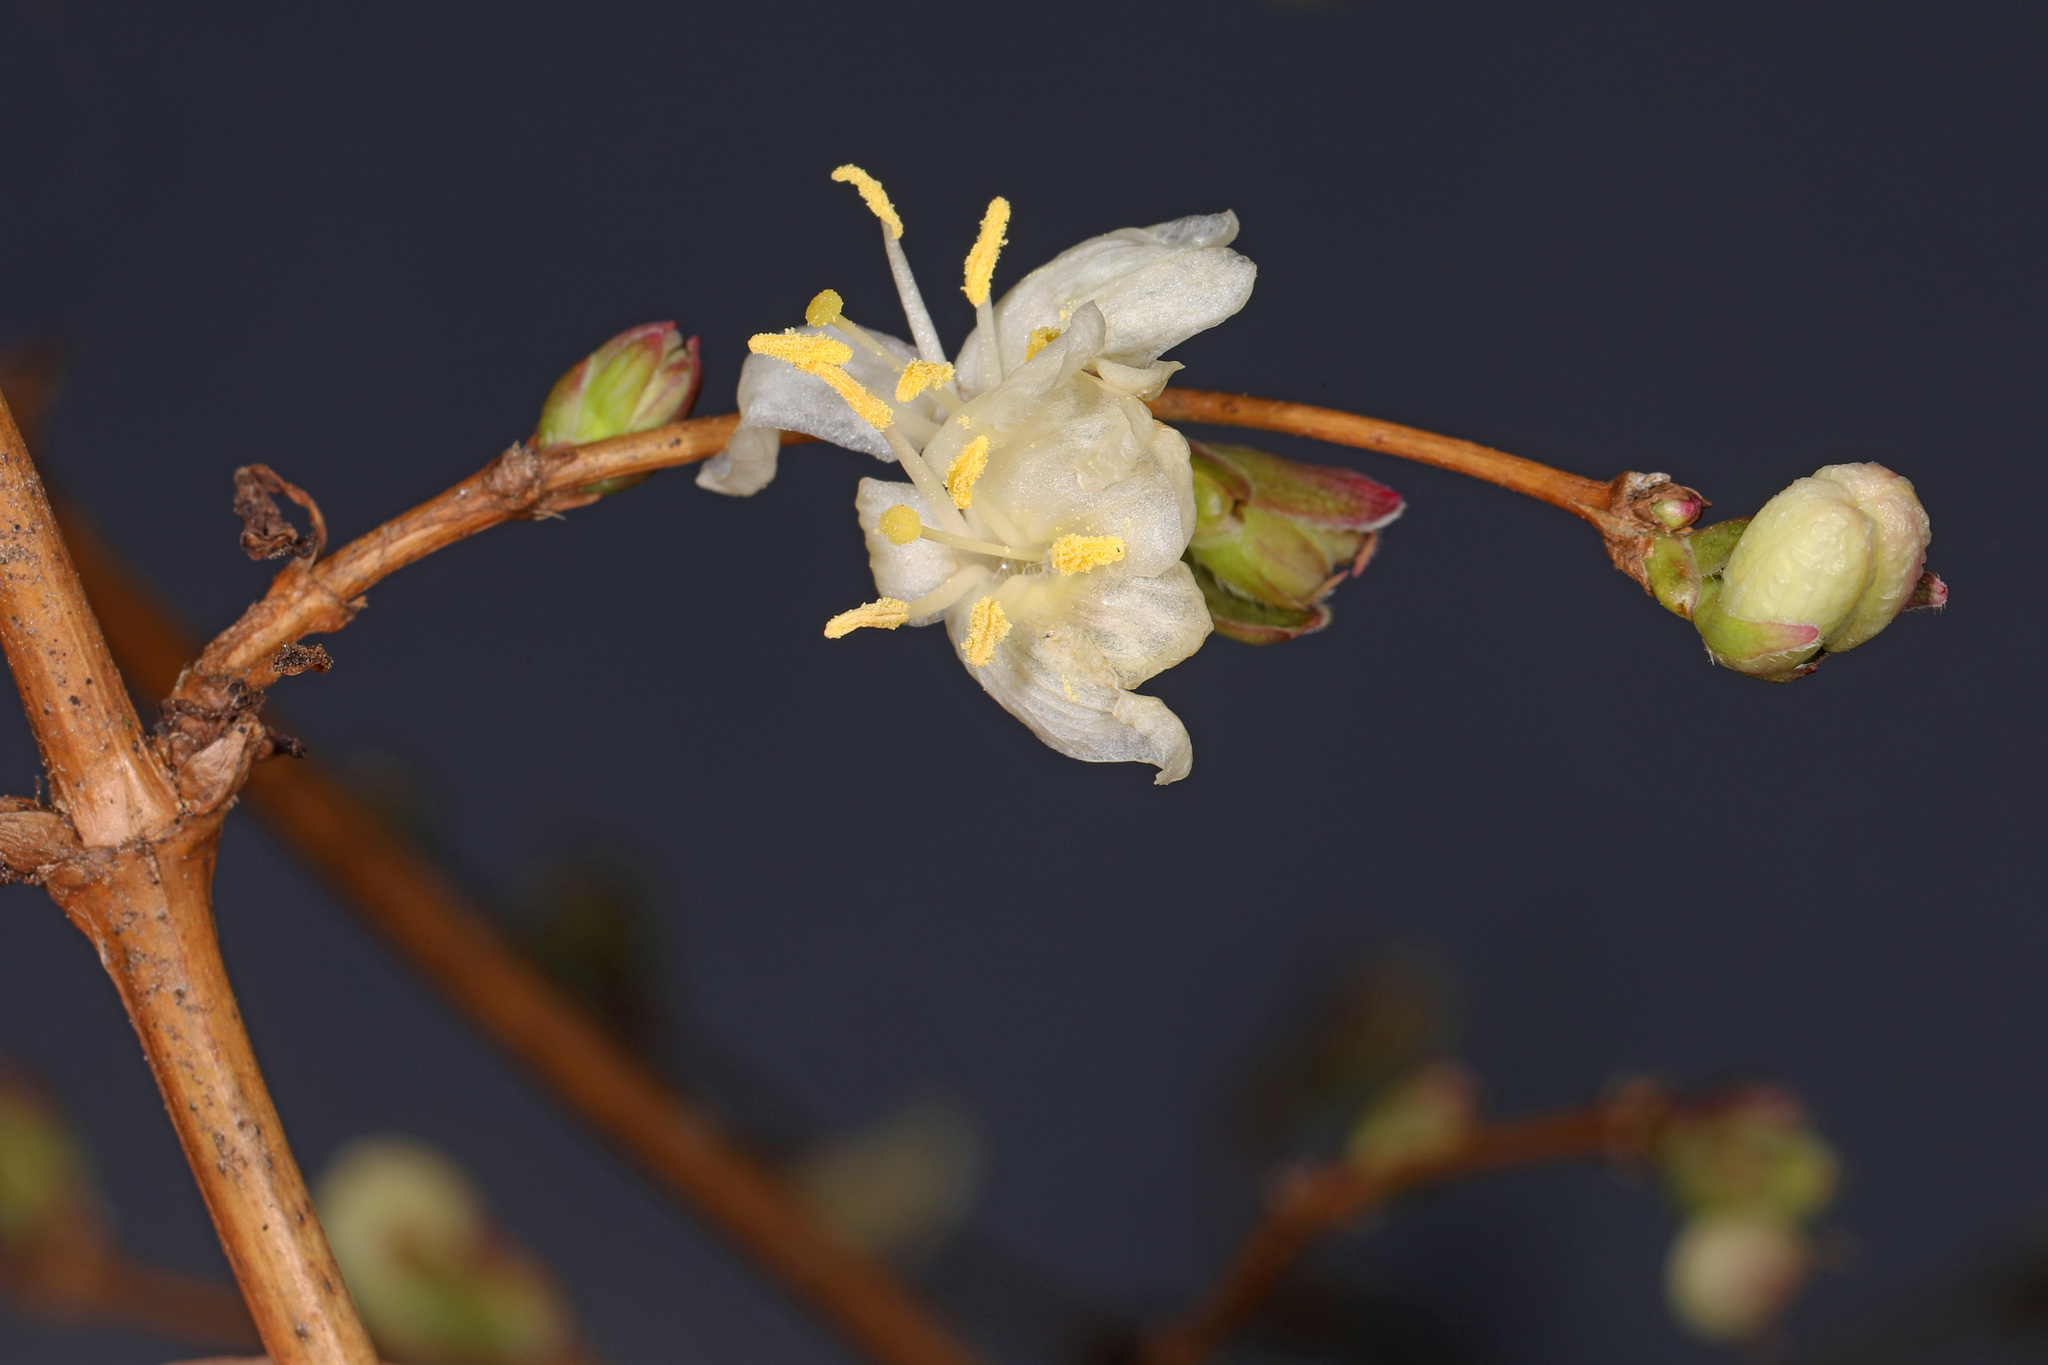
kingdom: Plantae
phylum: Tracheophyta
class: Magnoliopsida
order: Dipsacales
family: Caprifoliaceae
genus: Lonicera
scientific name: Lonicera fragrantissima
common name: Fragrant honeysuckle
